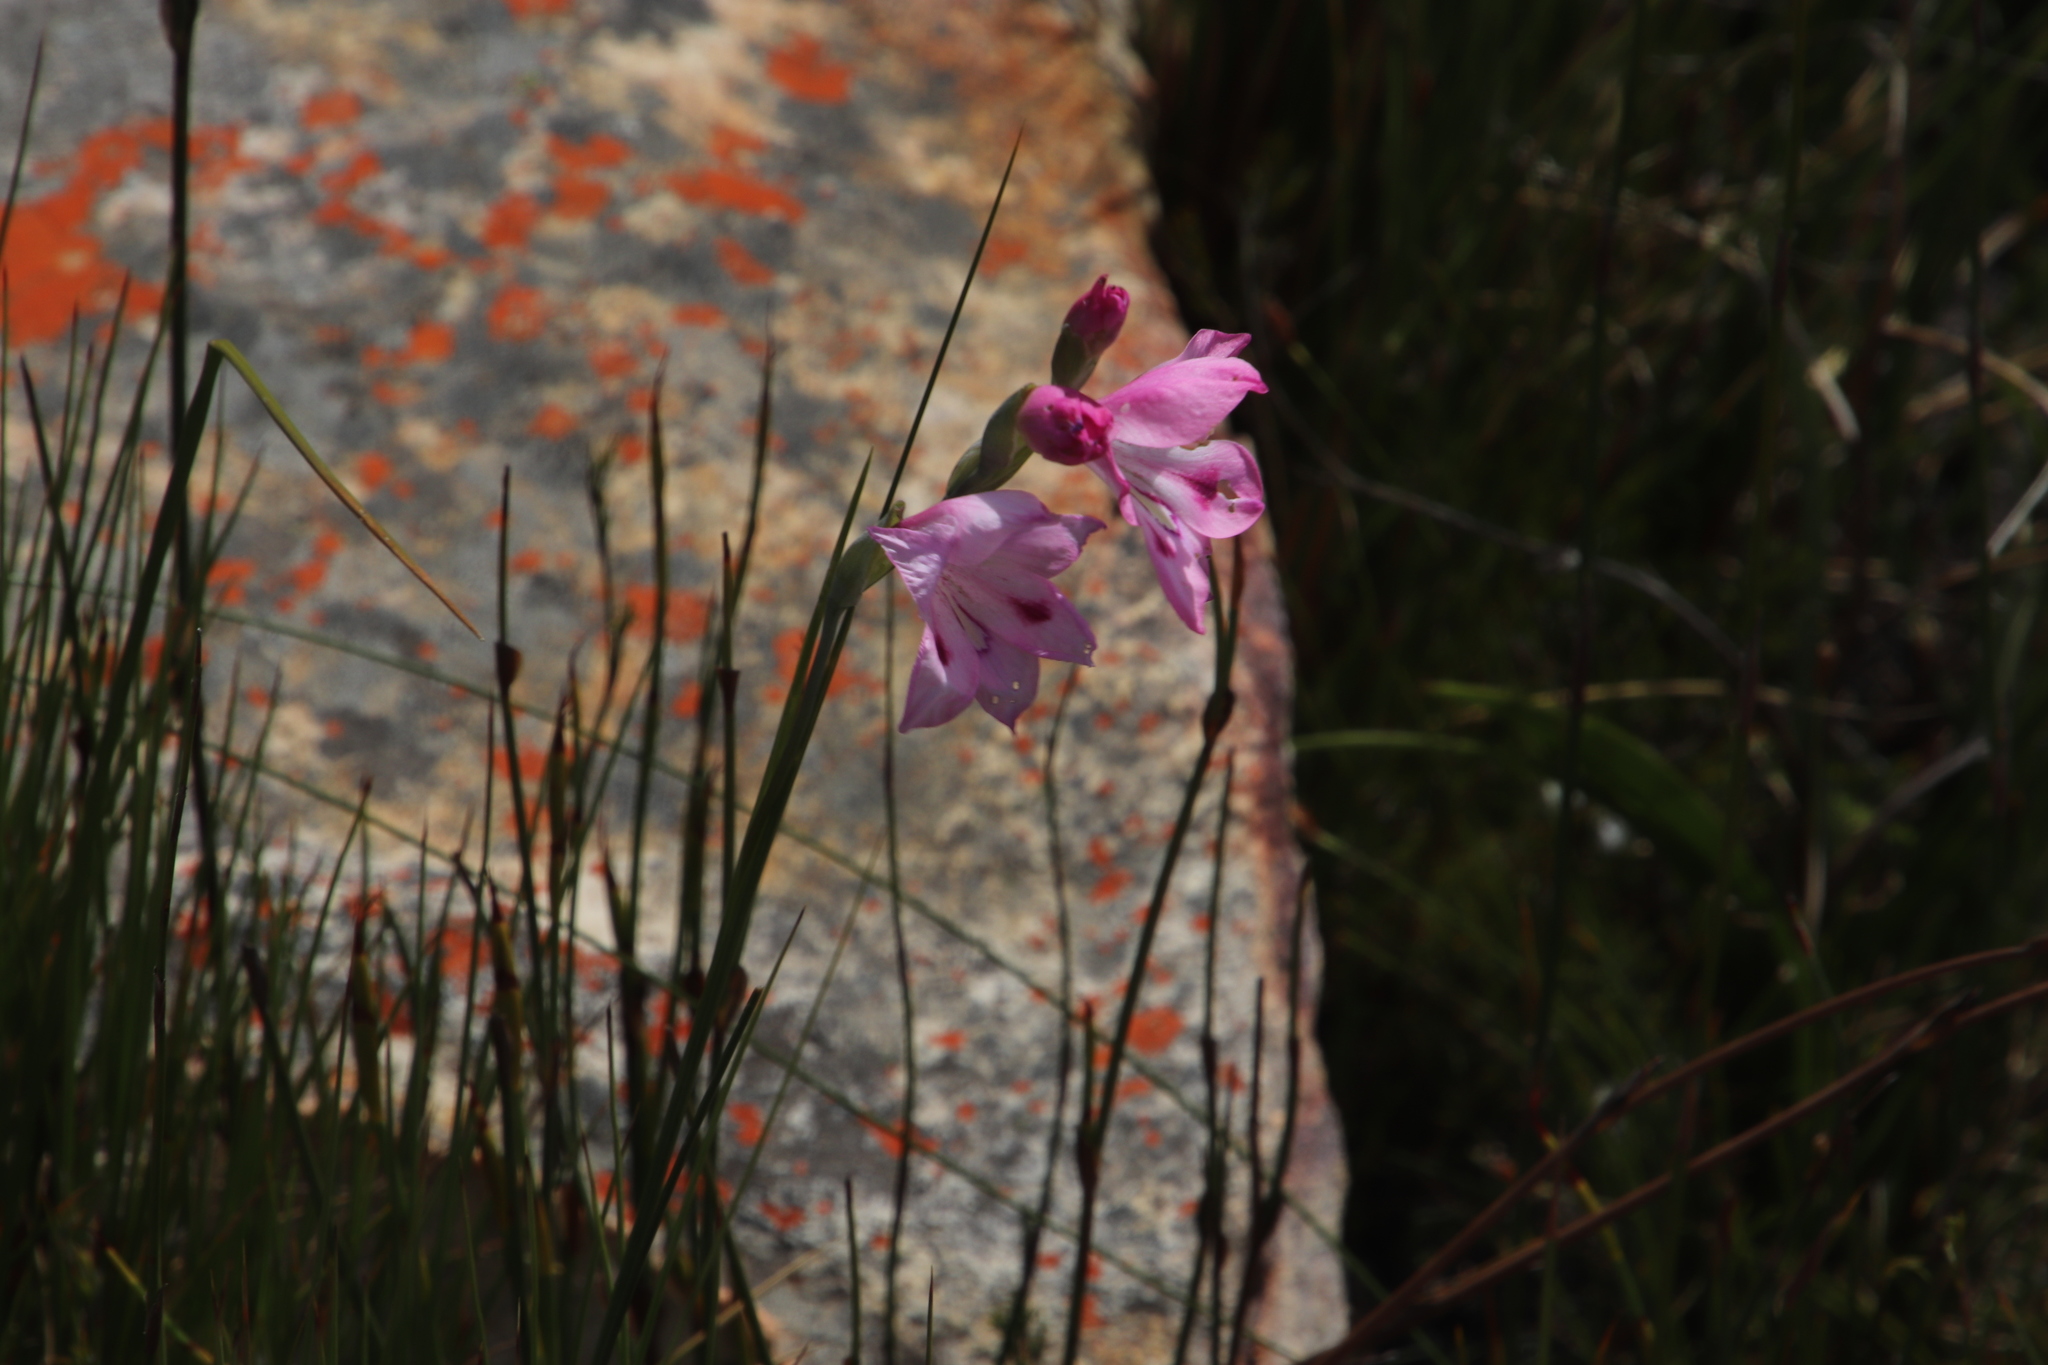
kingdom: Plantae
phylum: Tracheophyta
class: Liliopsida
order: Asparagales
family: Iridaceae
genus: Gladiolus
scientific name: Gladiolus inflatus
